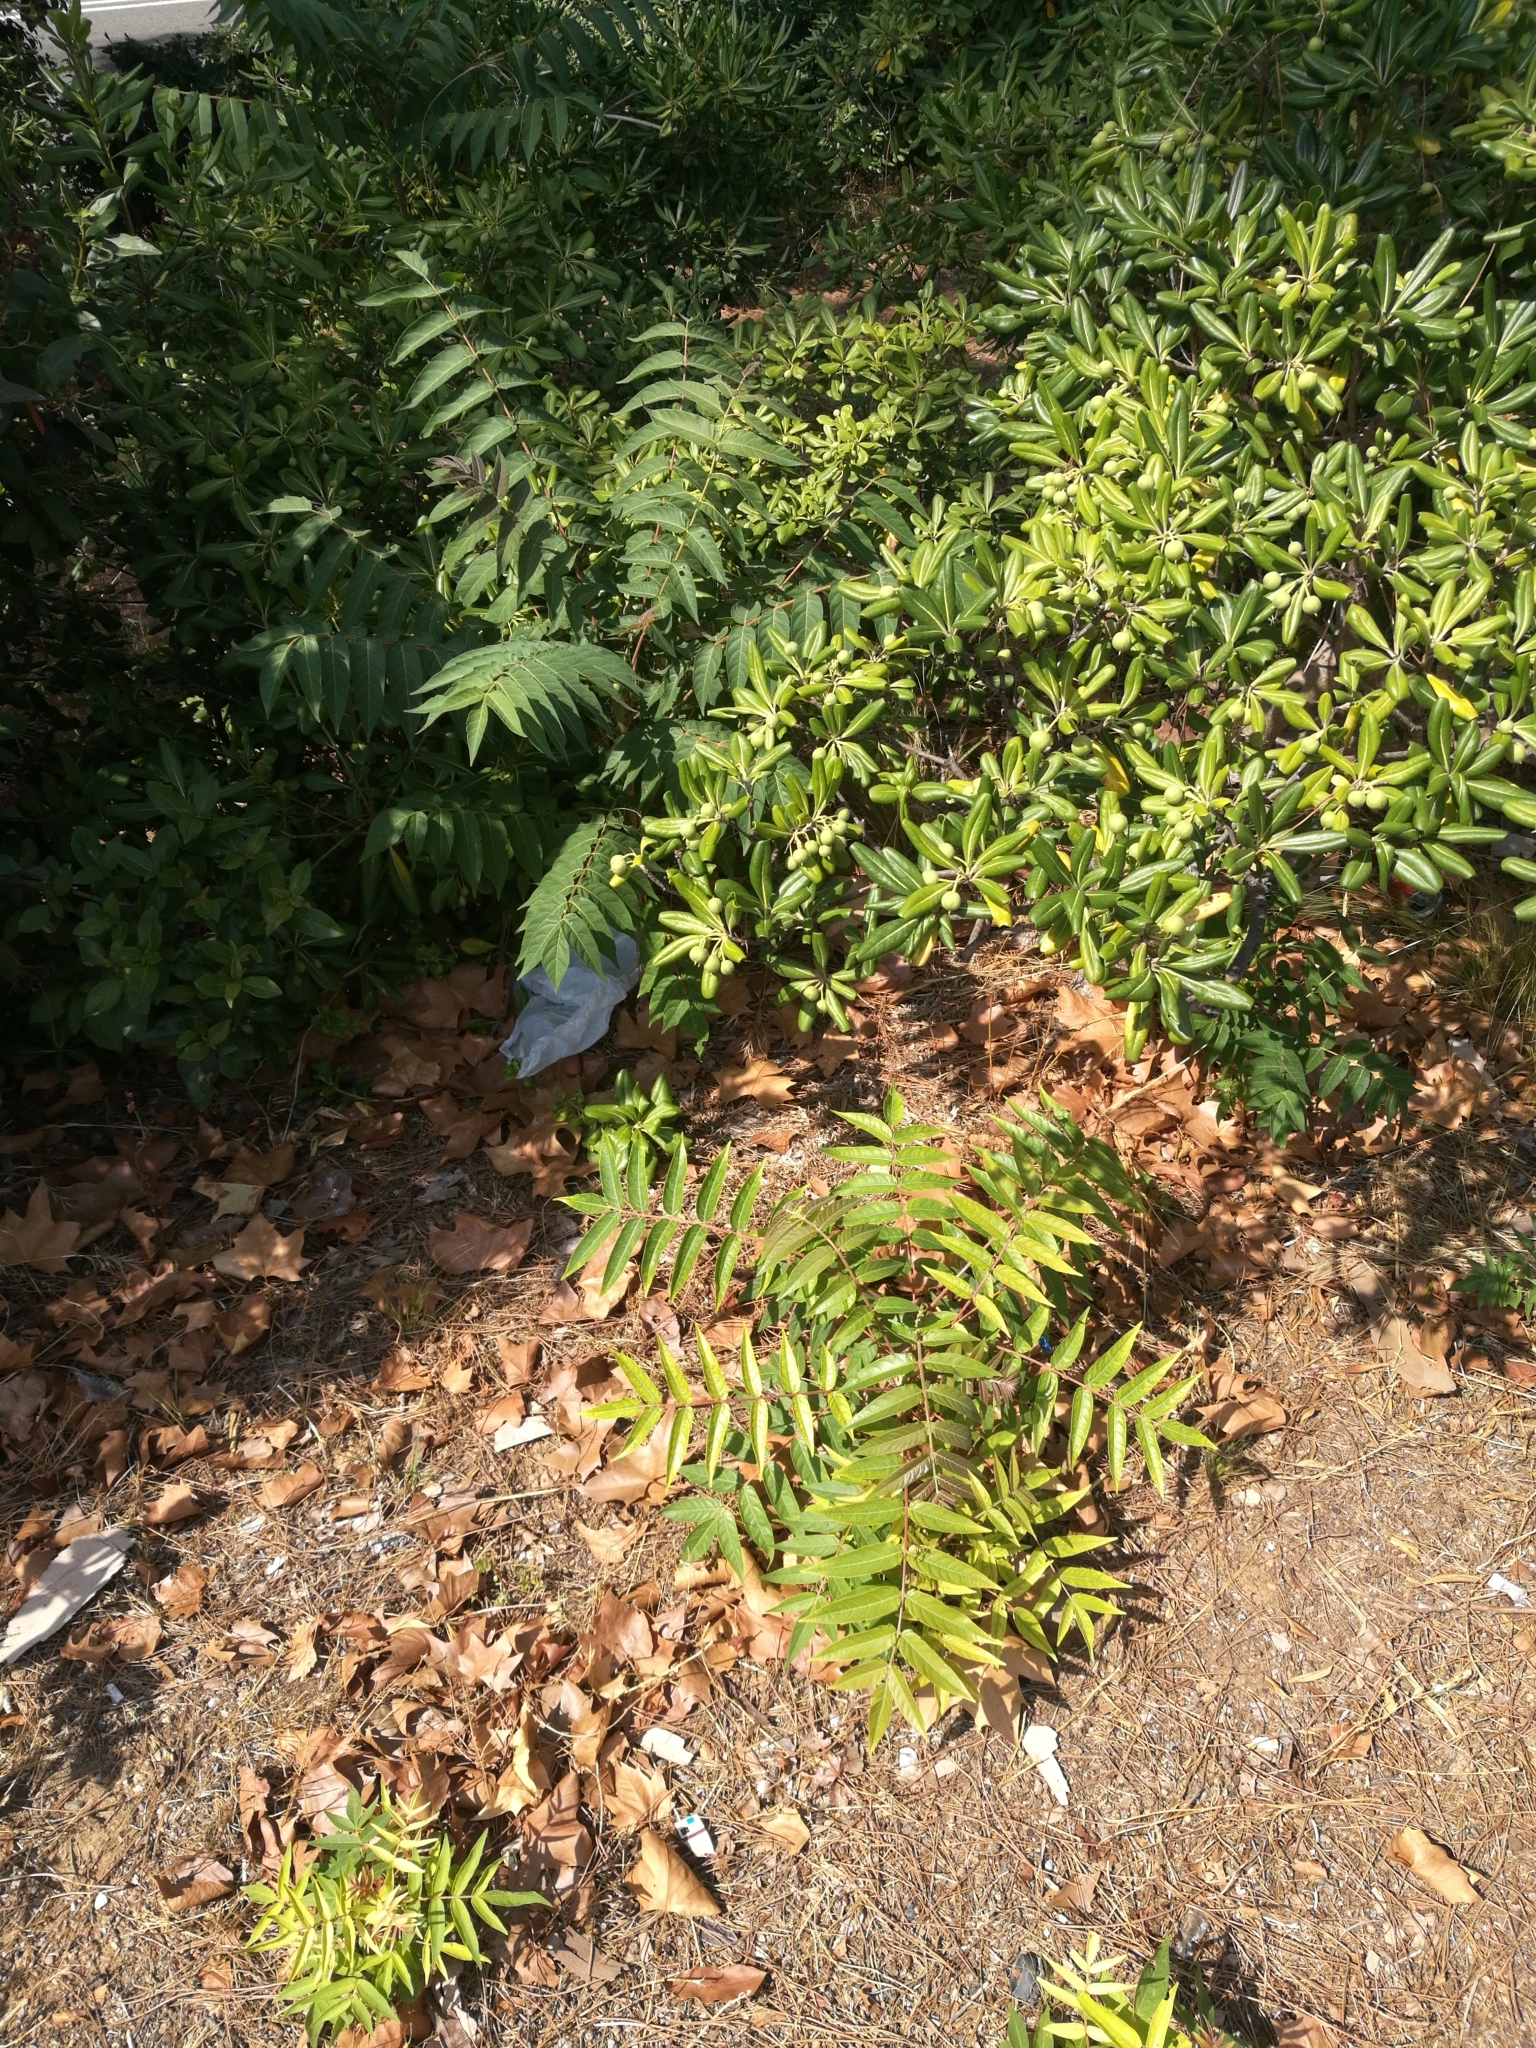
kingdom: Plantae
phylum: Tracheophyta
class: Magnoliopsida
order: Sapindales
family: Simaroubaceae
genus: Ailanthus
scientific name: Ailanthus altissima
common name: Tree-of-heaven
